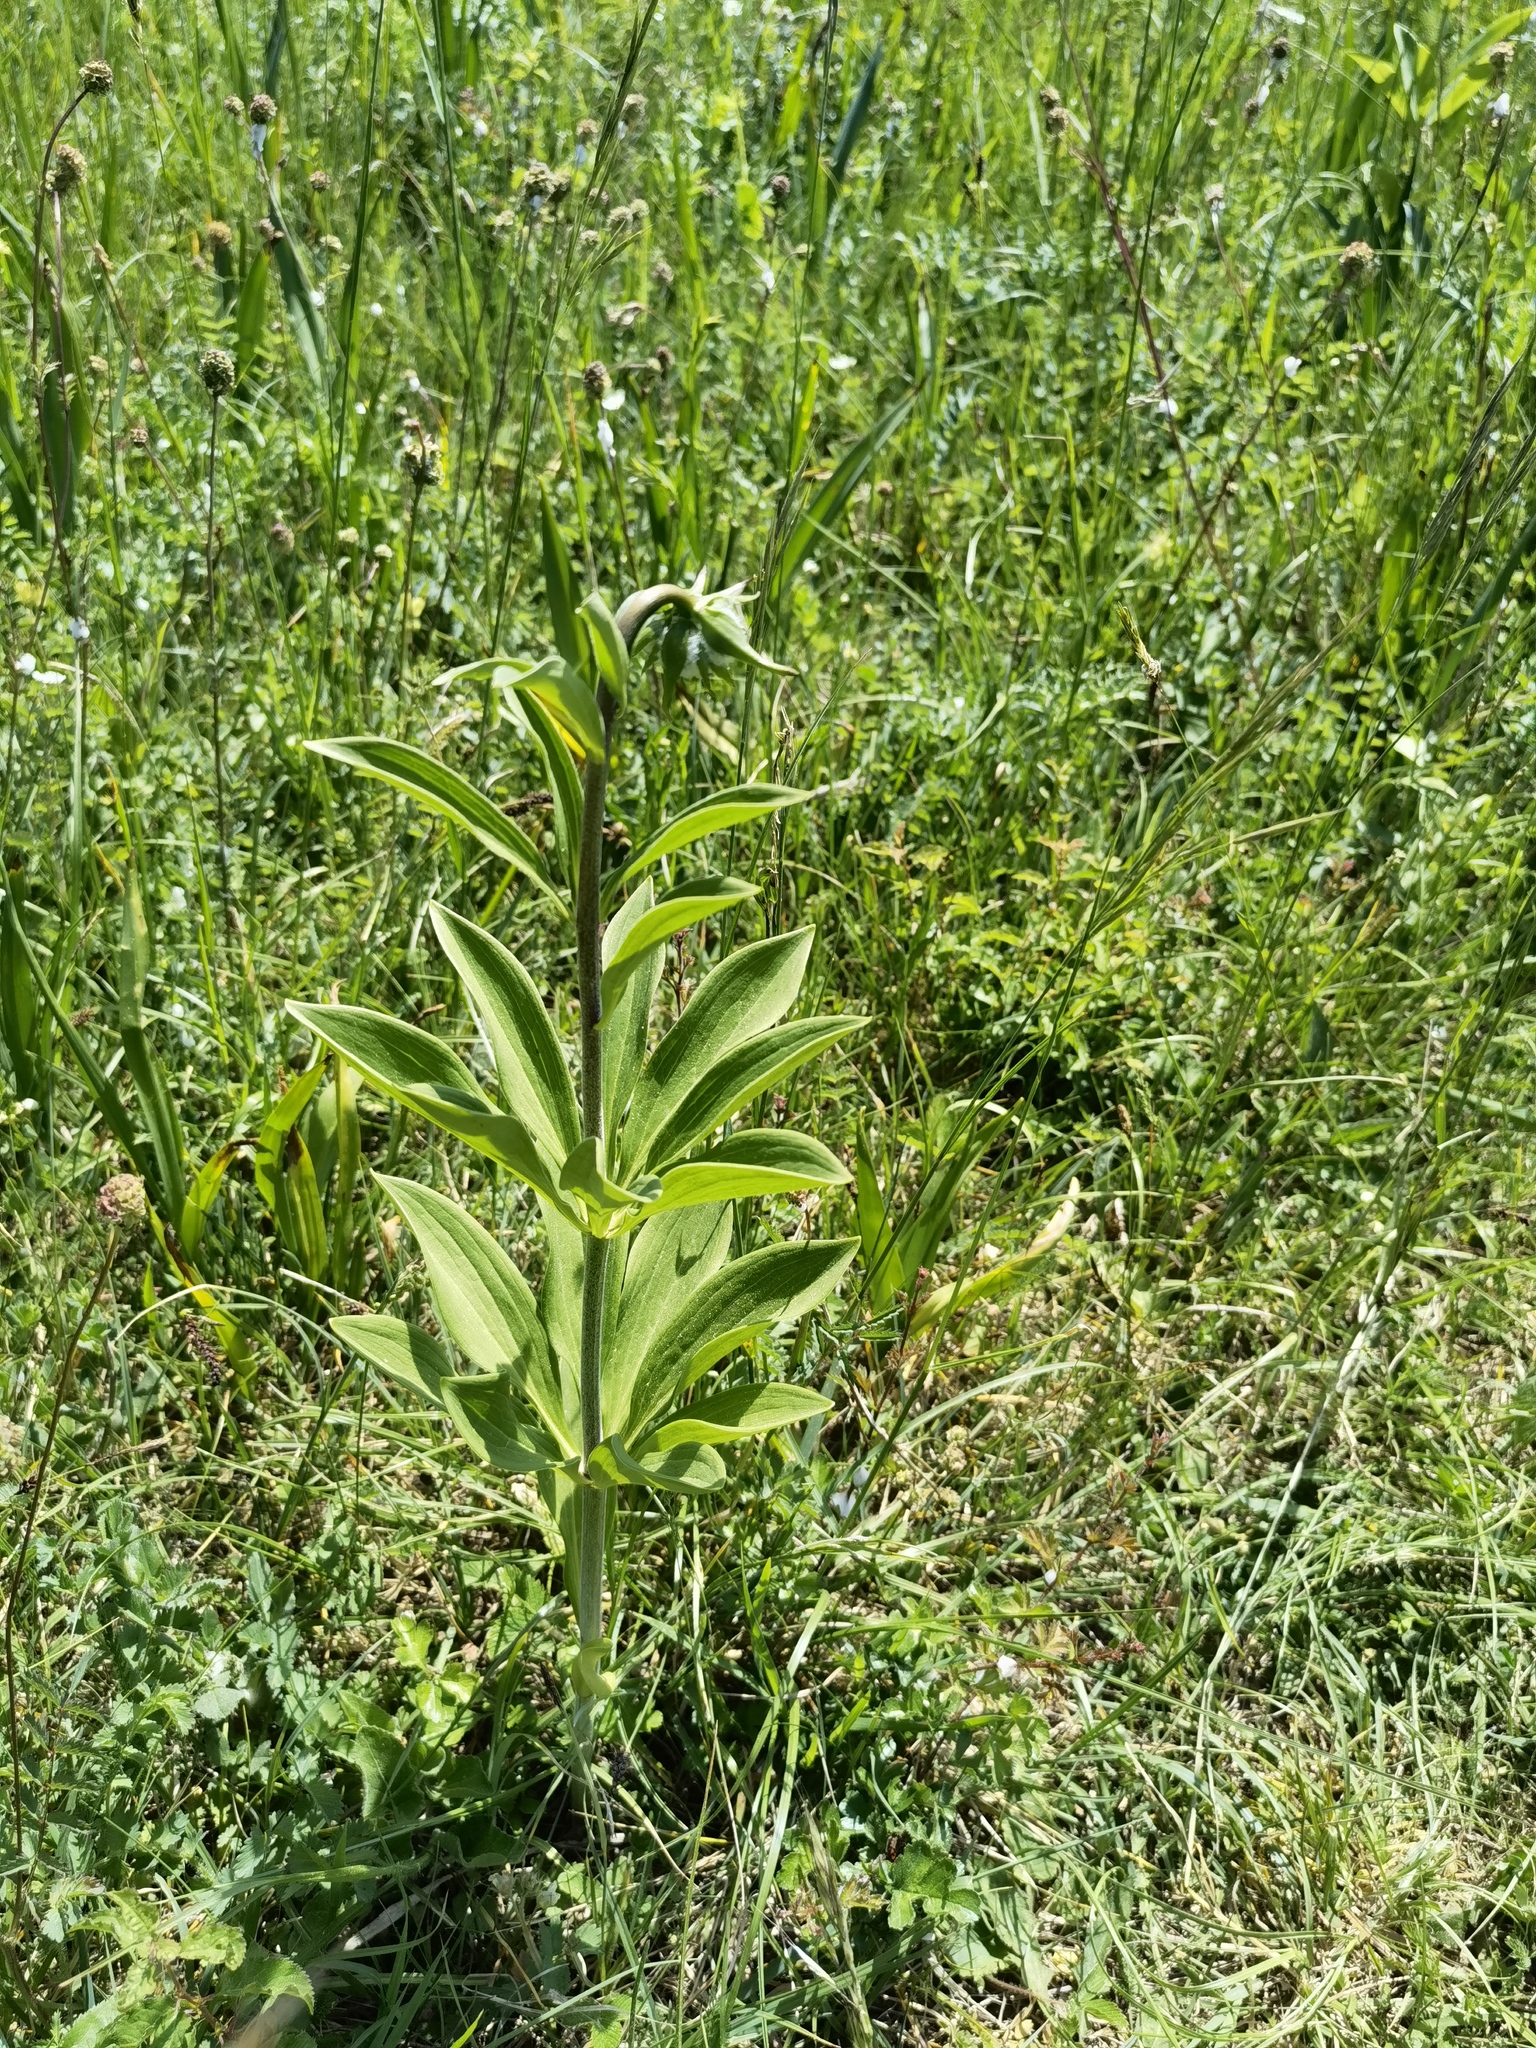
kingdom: Plantae
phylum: Tracheophyta
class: Liliopsida
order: Liliales
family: Liliaceae
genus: Lilium
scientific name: Lilium martagon
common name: Martagon lily
